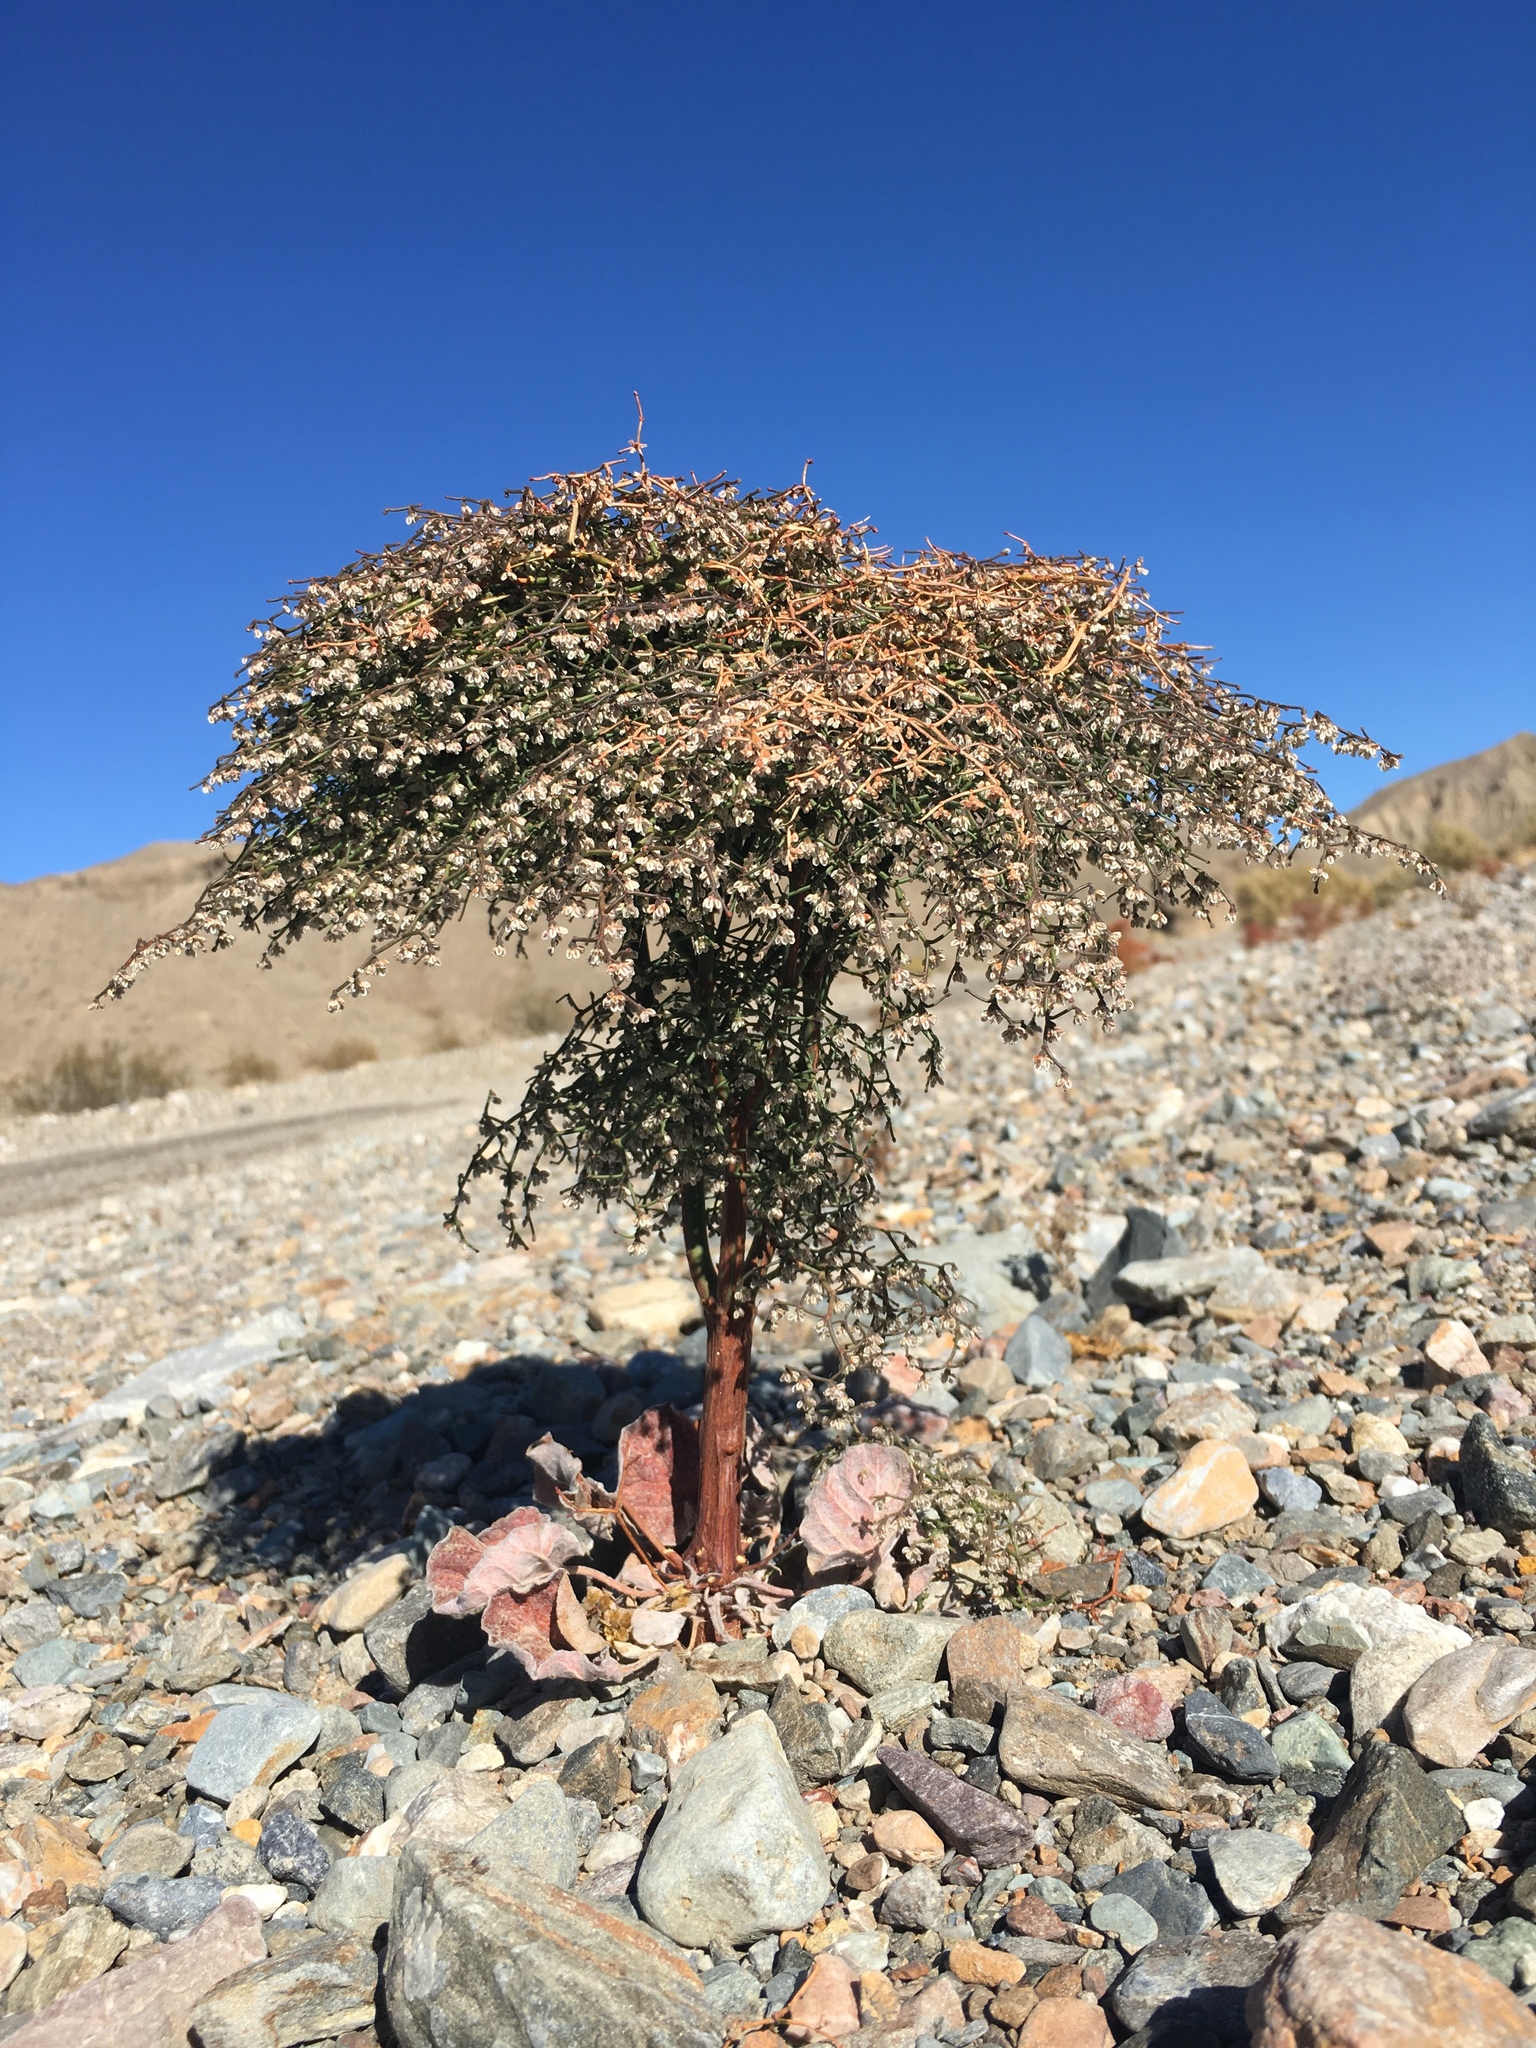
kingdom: Plantae
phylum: Tracheophyta
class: Magnoliopsida
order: Caryophyllales
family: Polygonaceae
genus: Eriogonum
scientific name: Eriogonum rixfordii
